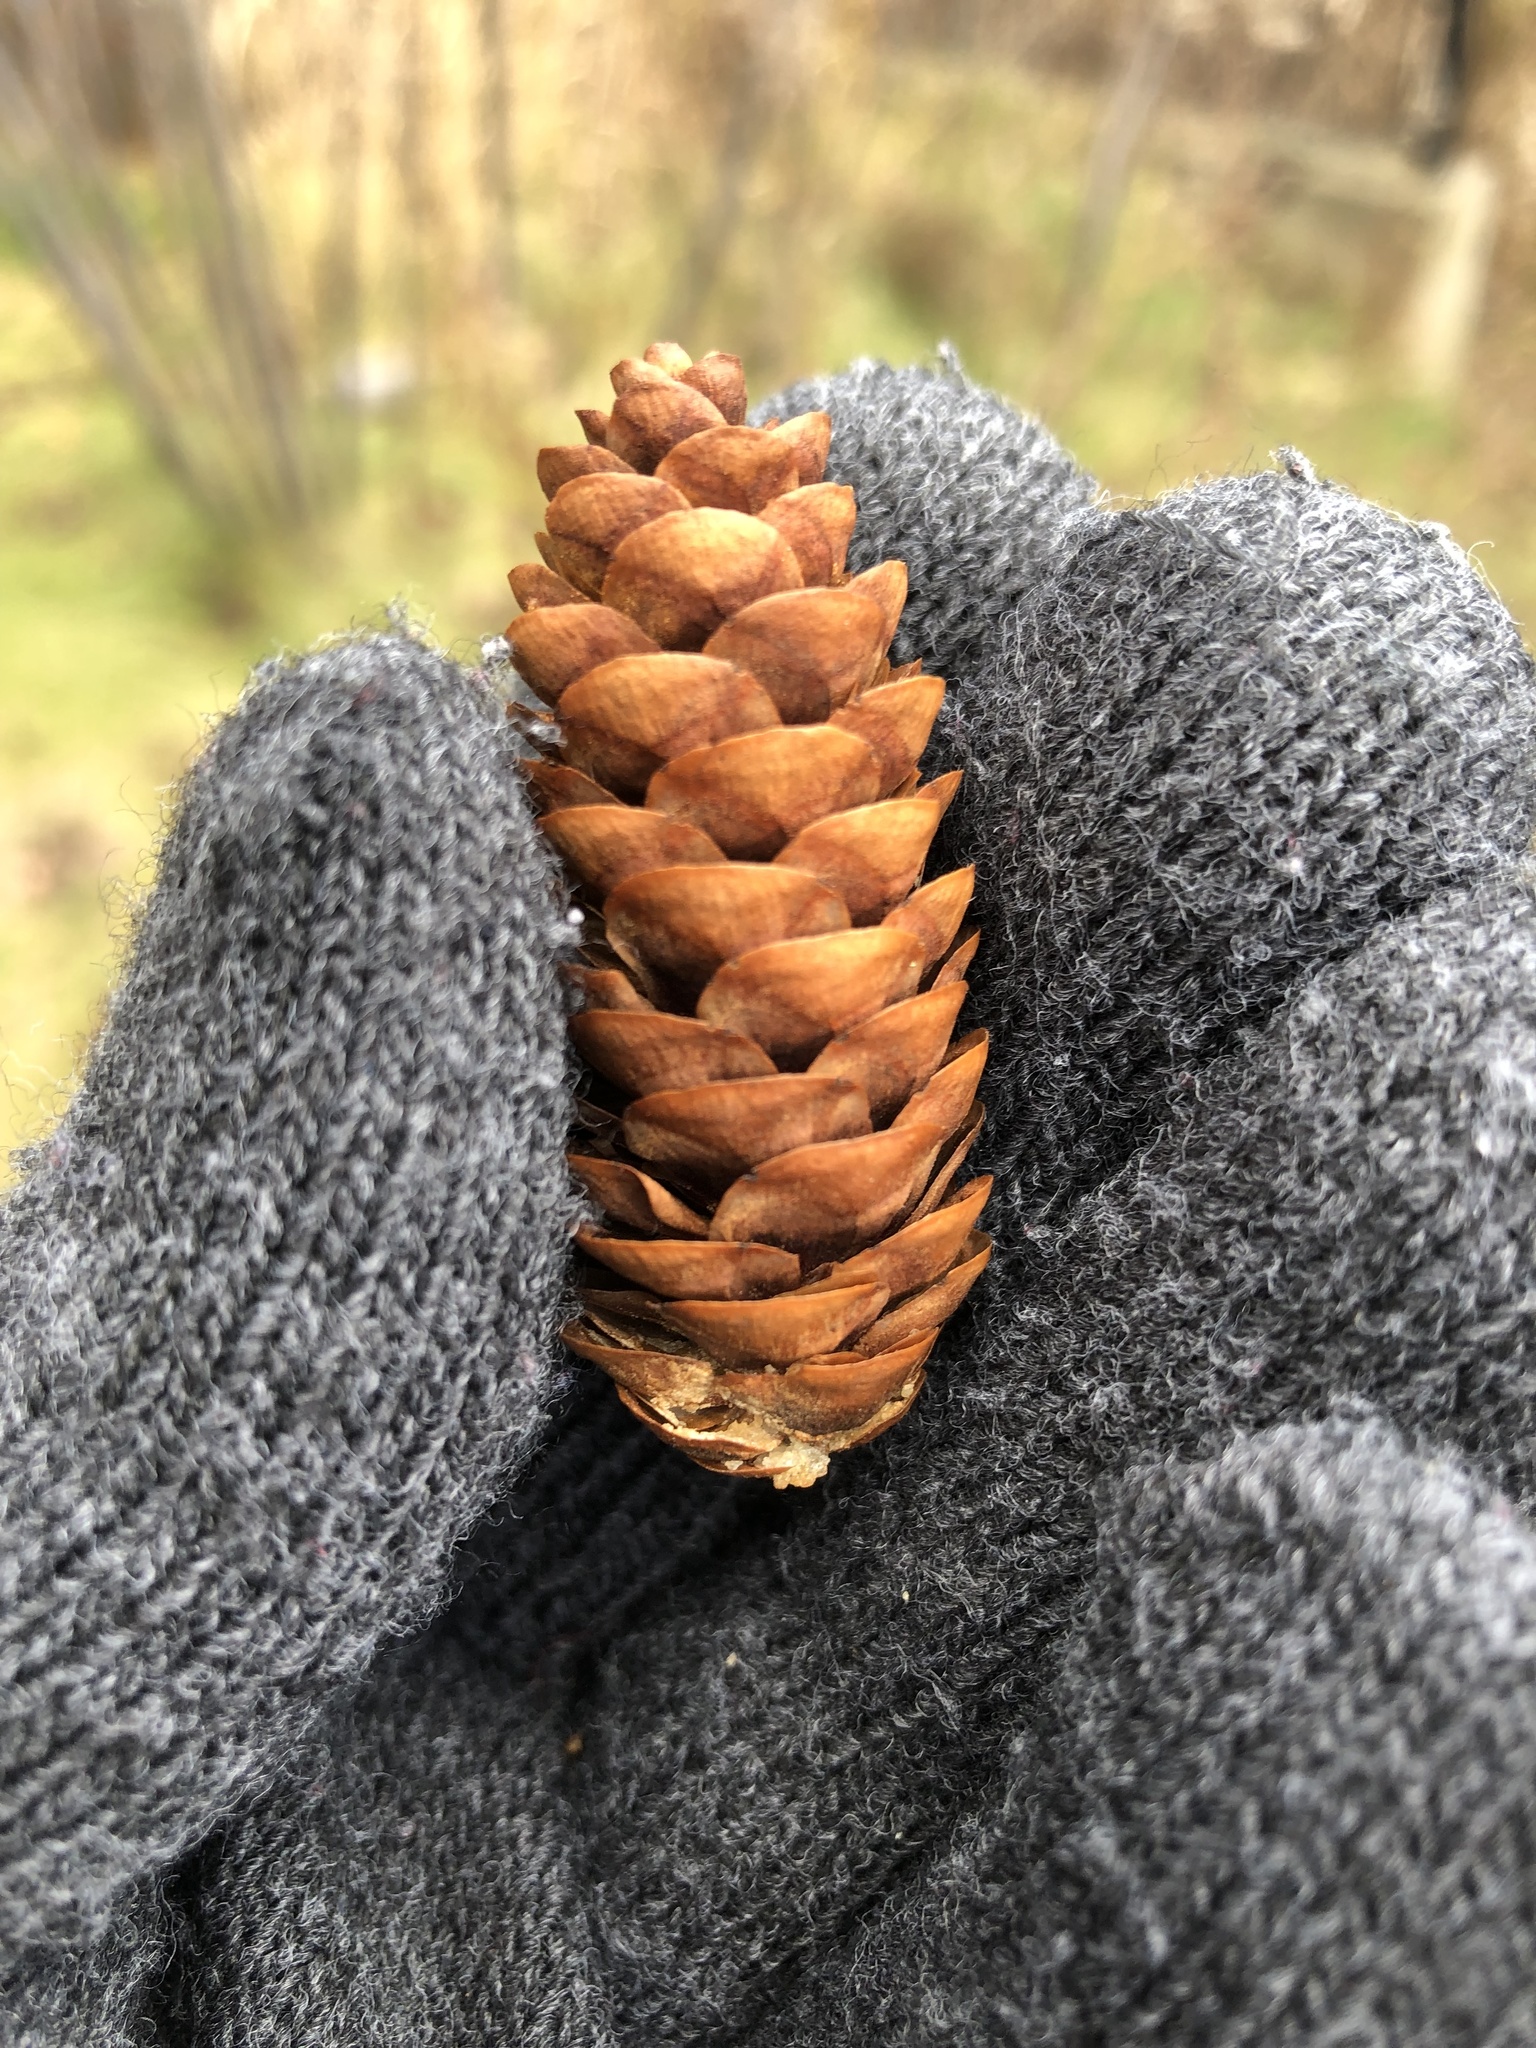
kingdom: Plantae
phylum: Tracheophyta
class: Pinopsida
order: Pinales
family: Pinaceae
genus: Picea
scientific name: Picea glauca
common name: White spruce
